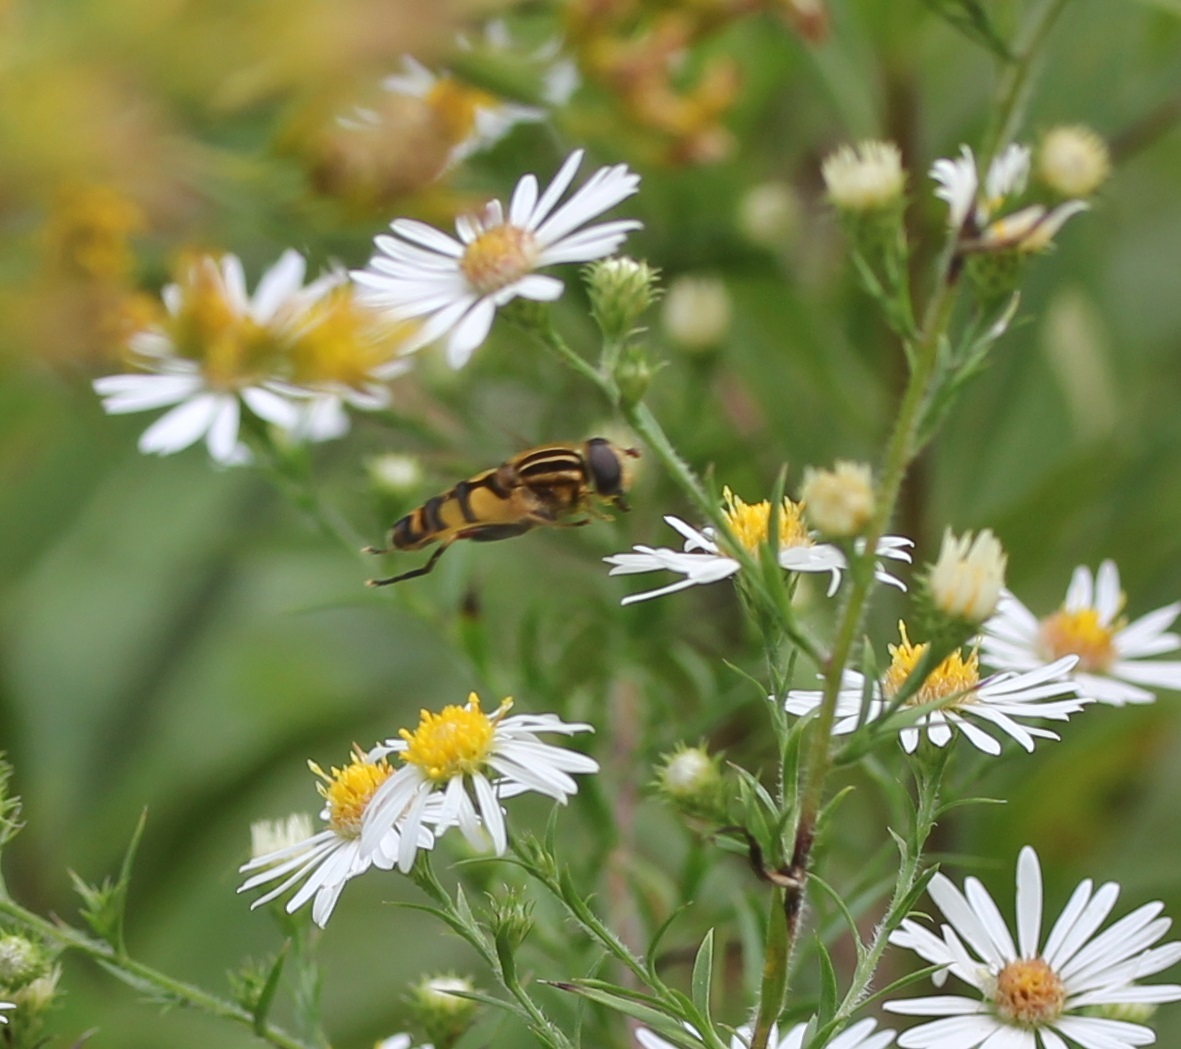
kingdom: Animalia
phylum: Arthropoda
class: Insecta
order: Diptera
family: Syrphidae
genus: Helophilus
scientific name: Helophilus fasciatus
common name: Narrow-headed marsh fly
